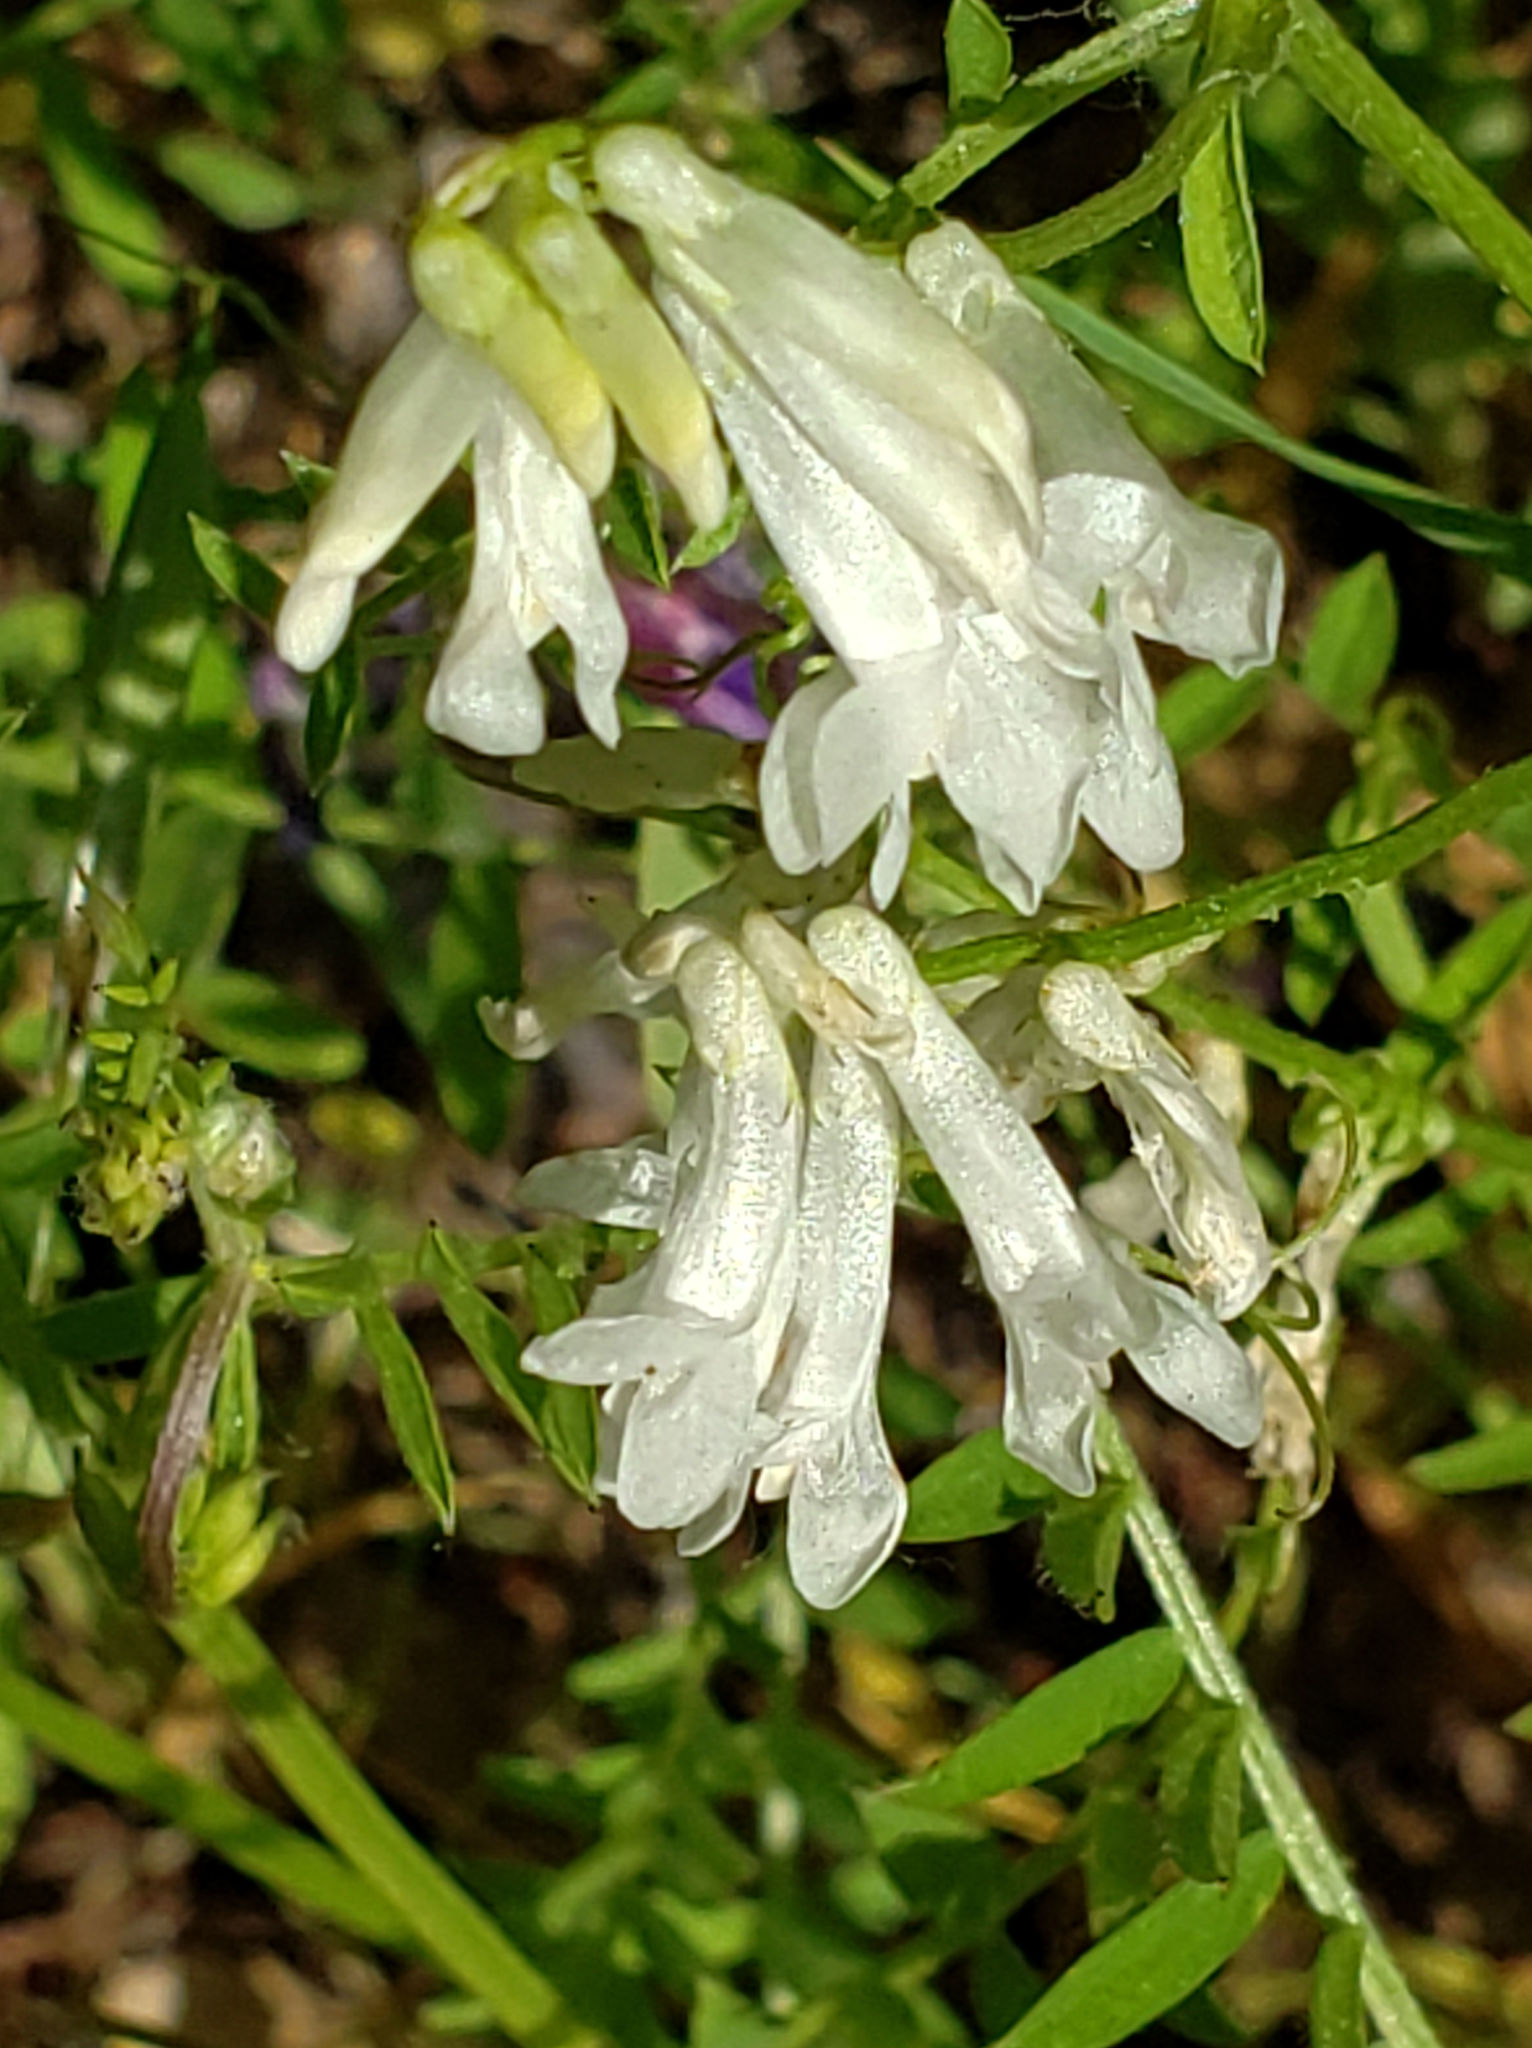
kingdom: Plantae
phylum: Tracheophyta
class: Magnoliopsida
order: Fabales
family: Fabaceae
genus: Vicia
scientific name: Vicia villosa
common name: Fodder vetch
